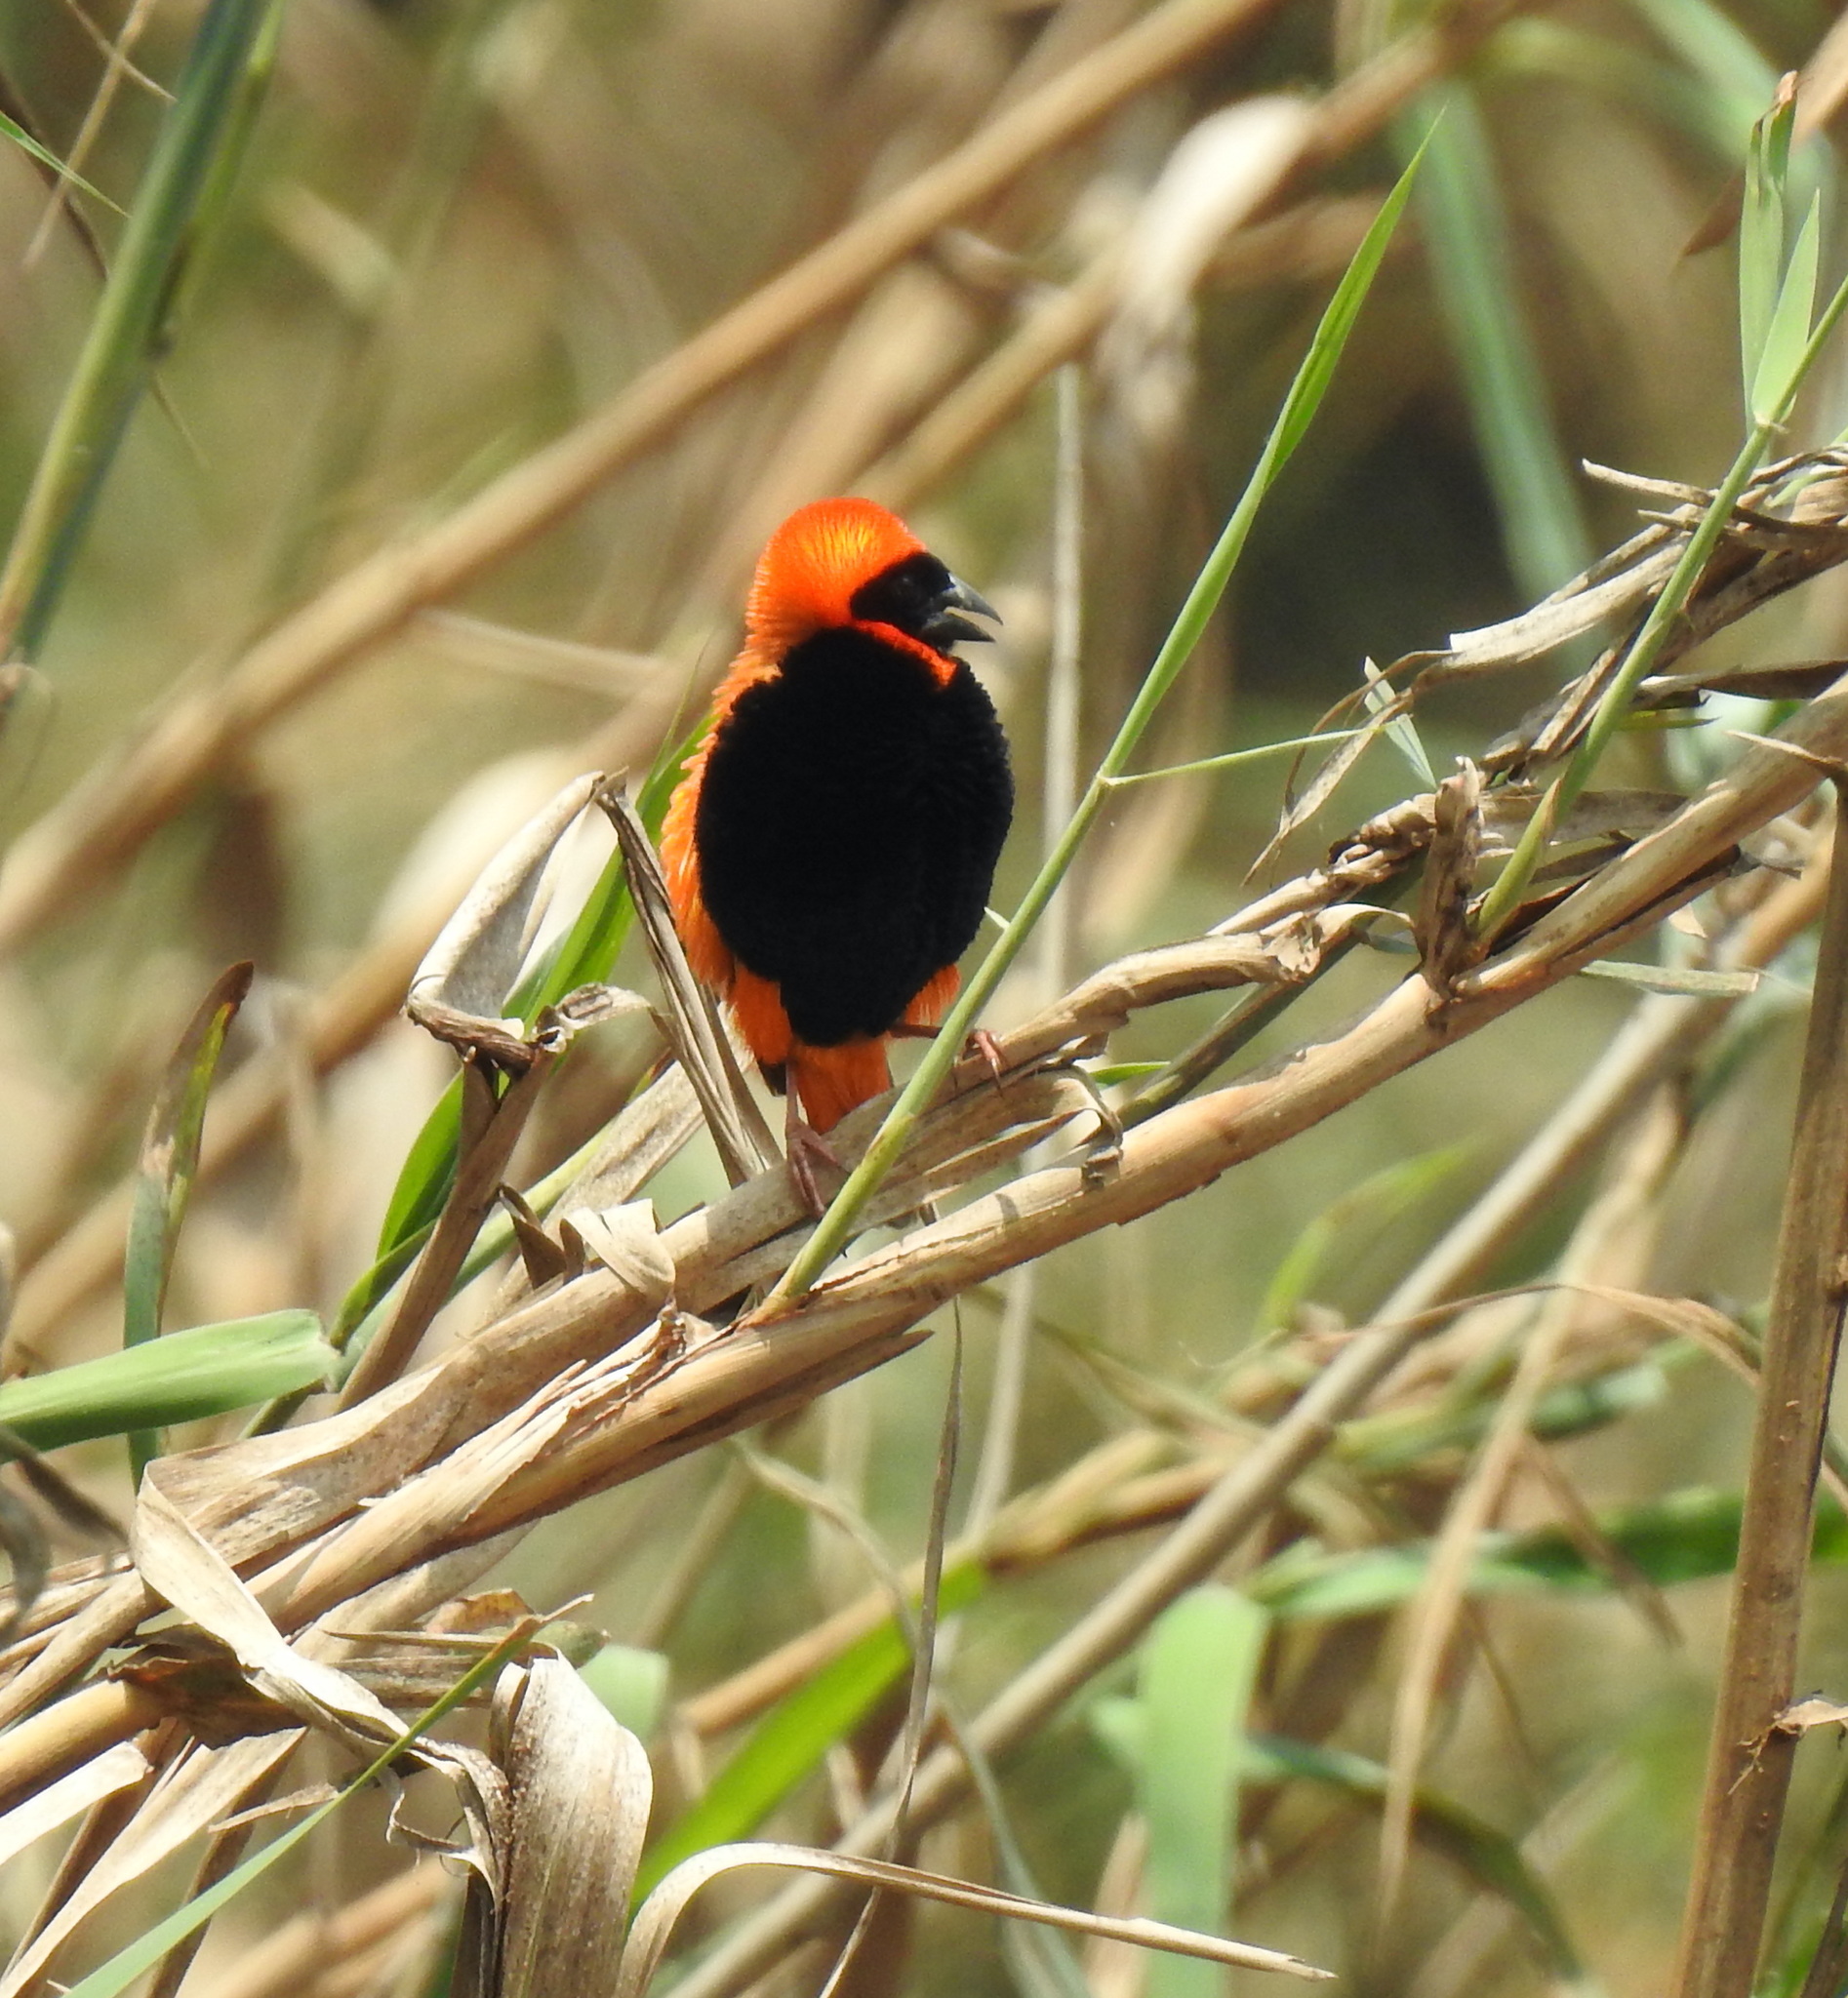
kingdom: Animalia
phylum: Chordata
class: Aves
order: Passeriformes
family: Ploceidae
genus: Euplectes
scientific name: Euplectes orix
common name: Southern red bishop
